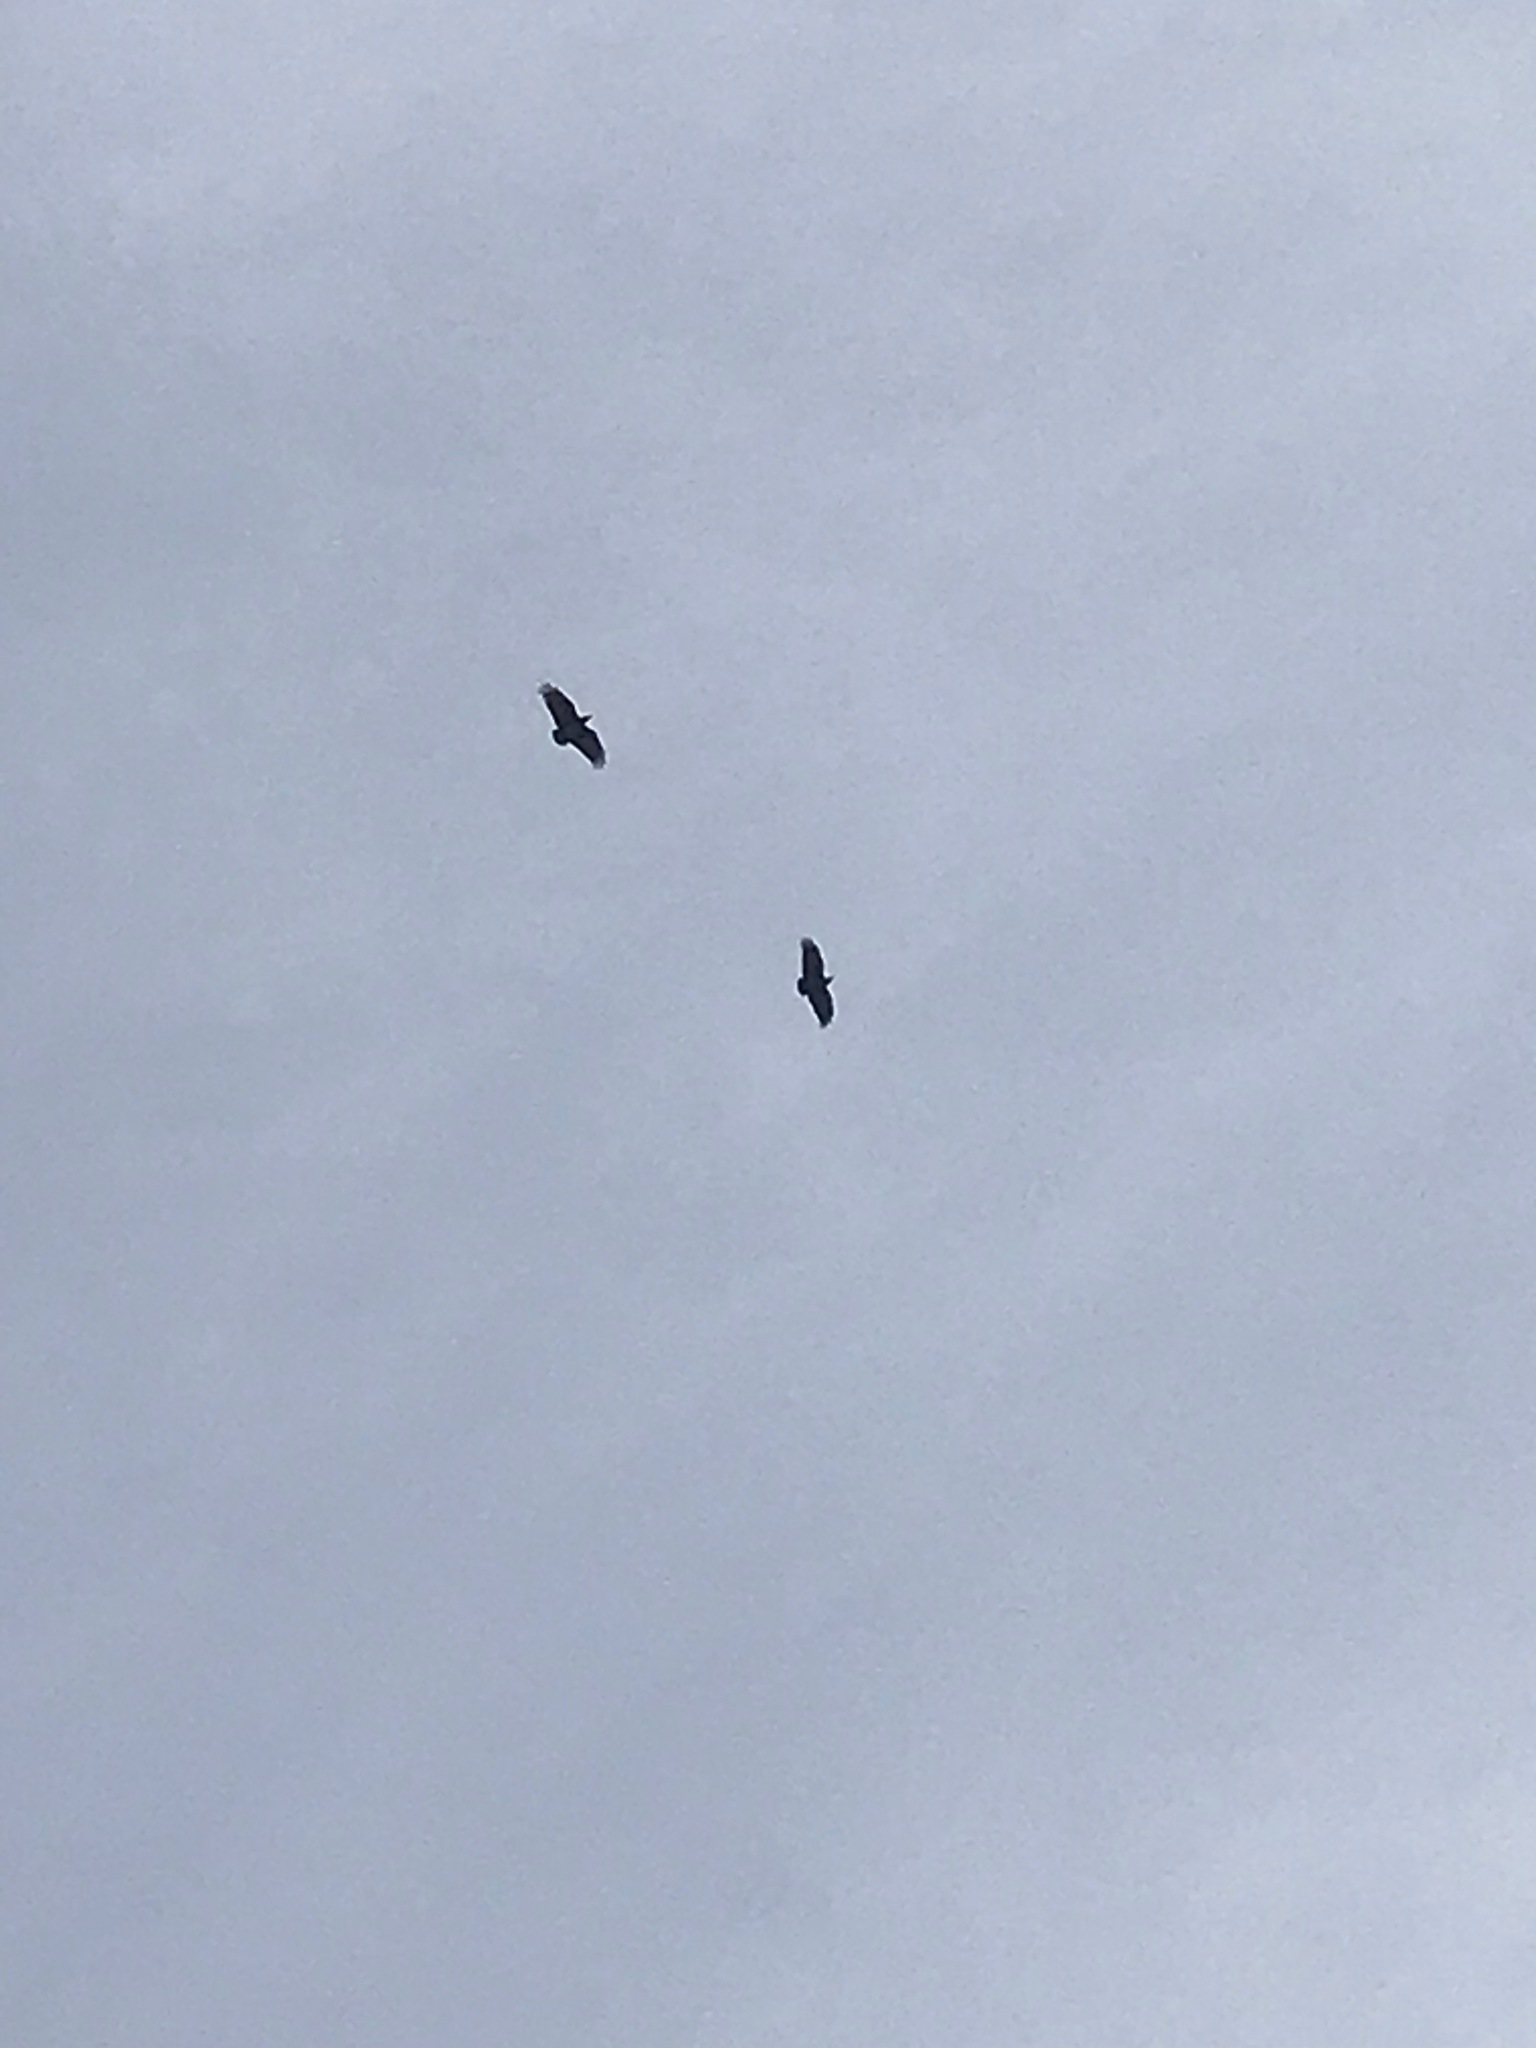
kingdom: Animalia
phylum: Chordata
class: Aves
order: Passeriformes
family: Corvidae
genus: Corvus
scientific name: Corvus rhipidurus
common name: Fan-tailed raven
